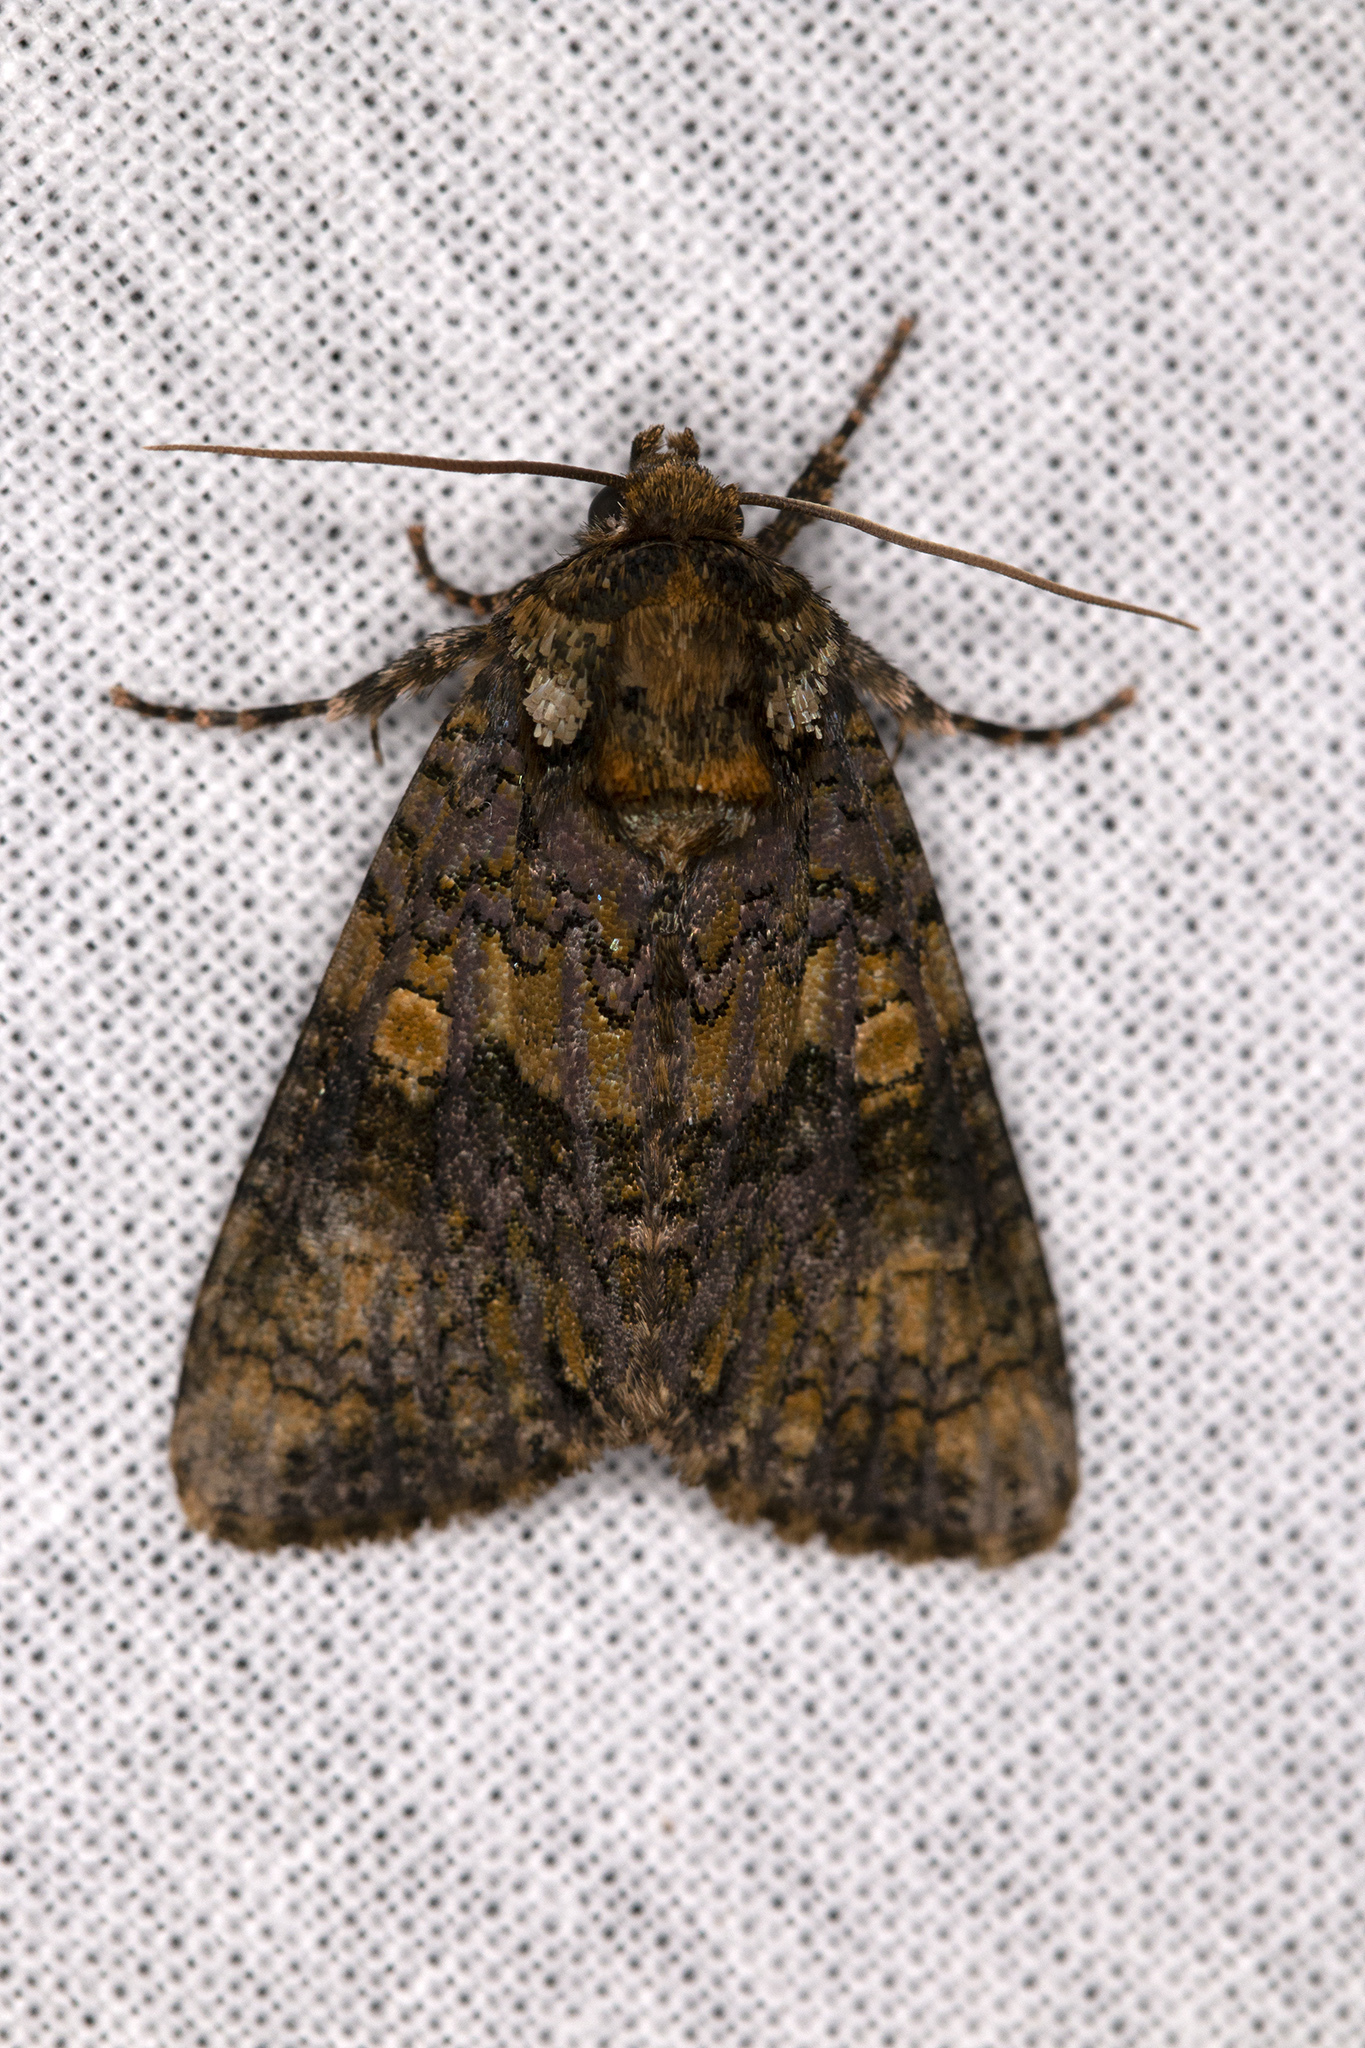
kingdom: Animalia
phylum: Arthropoda
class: Insecta
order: Lepidoptera
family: Noctuidae
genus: Craniophora
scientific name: Craniophora ligustri
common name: Coronet
